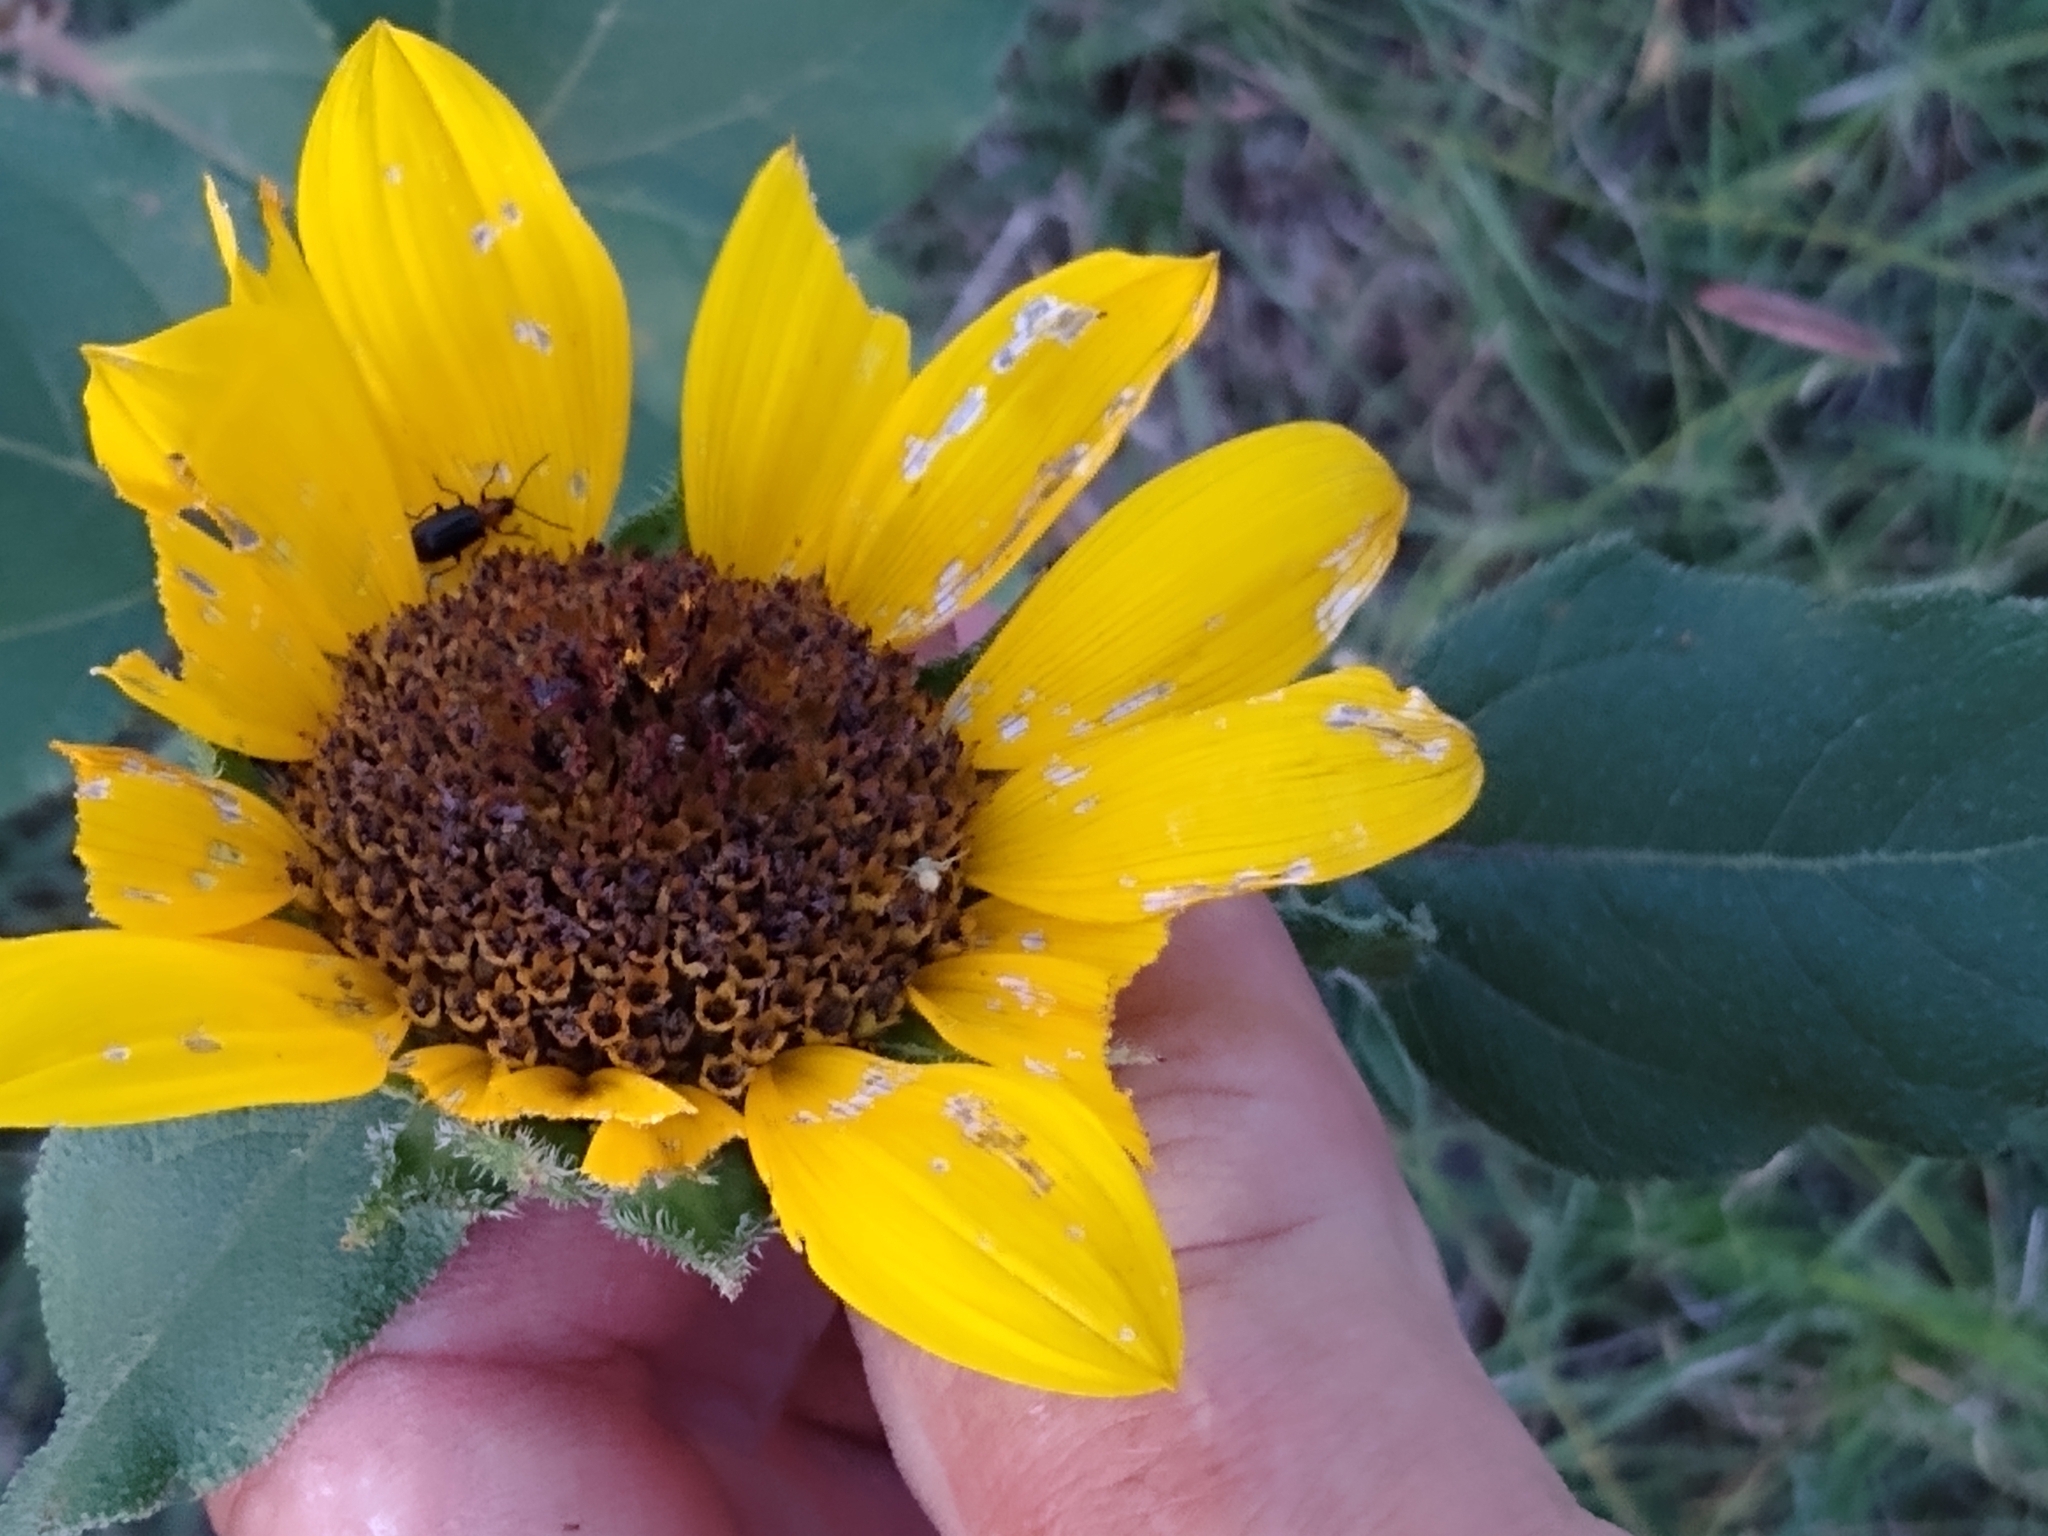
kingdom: Plantae
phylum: Tracheophyta
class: Magnoliopsida
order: Asterales
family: Asteraceae
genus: Helianthus
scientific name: Helianthus annuus
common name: Sunflower
